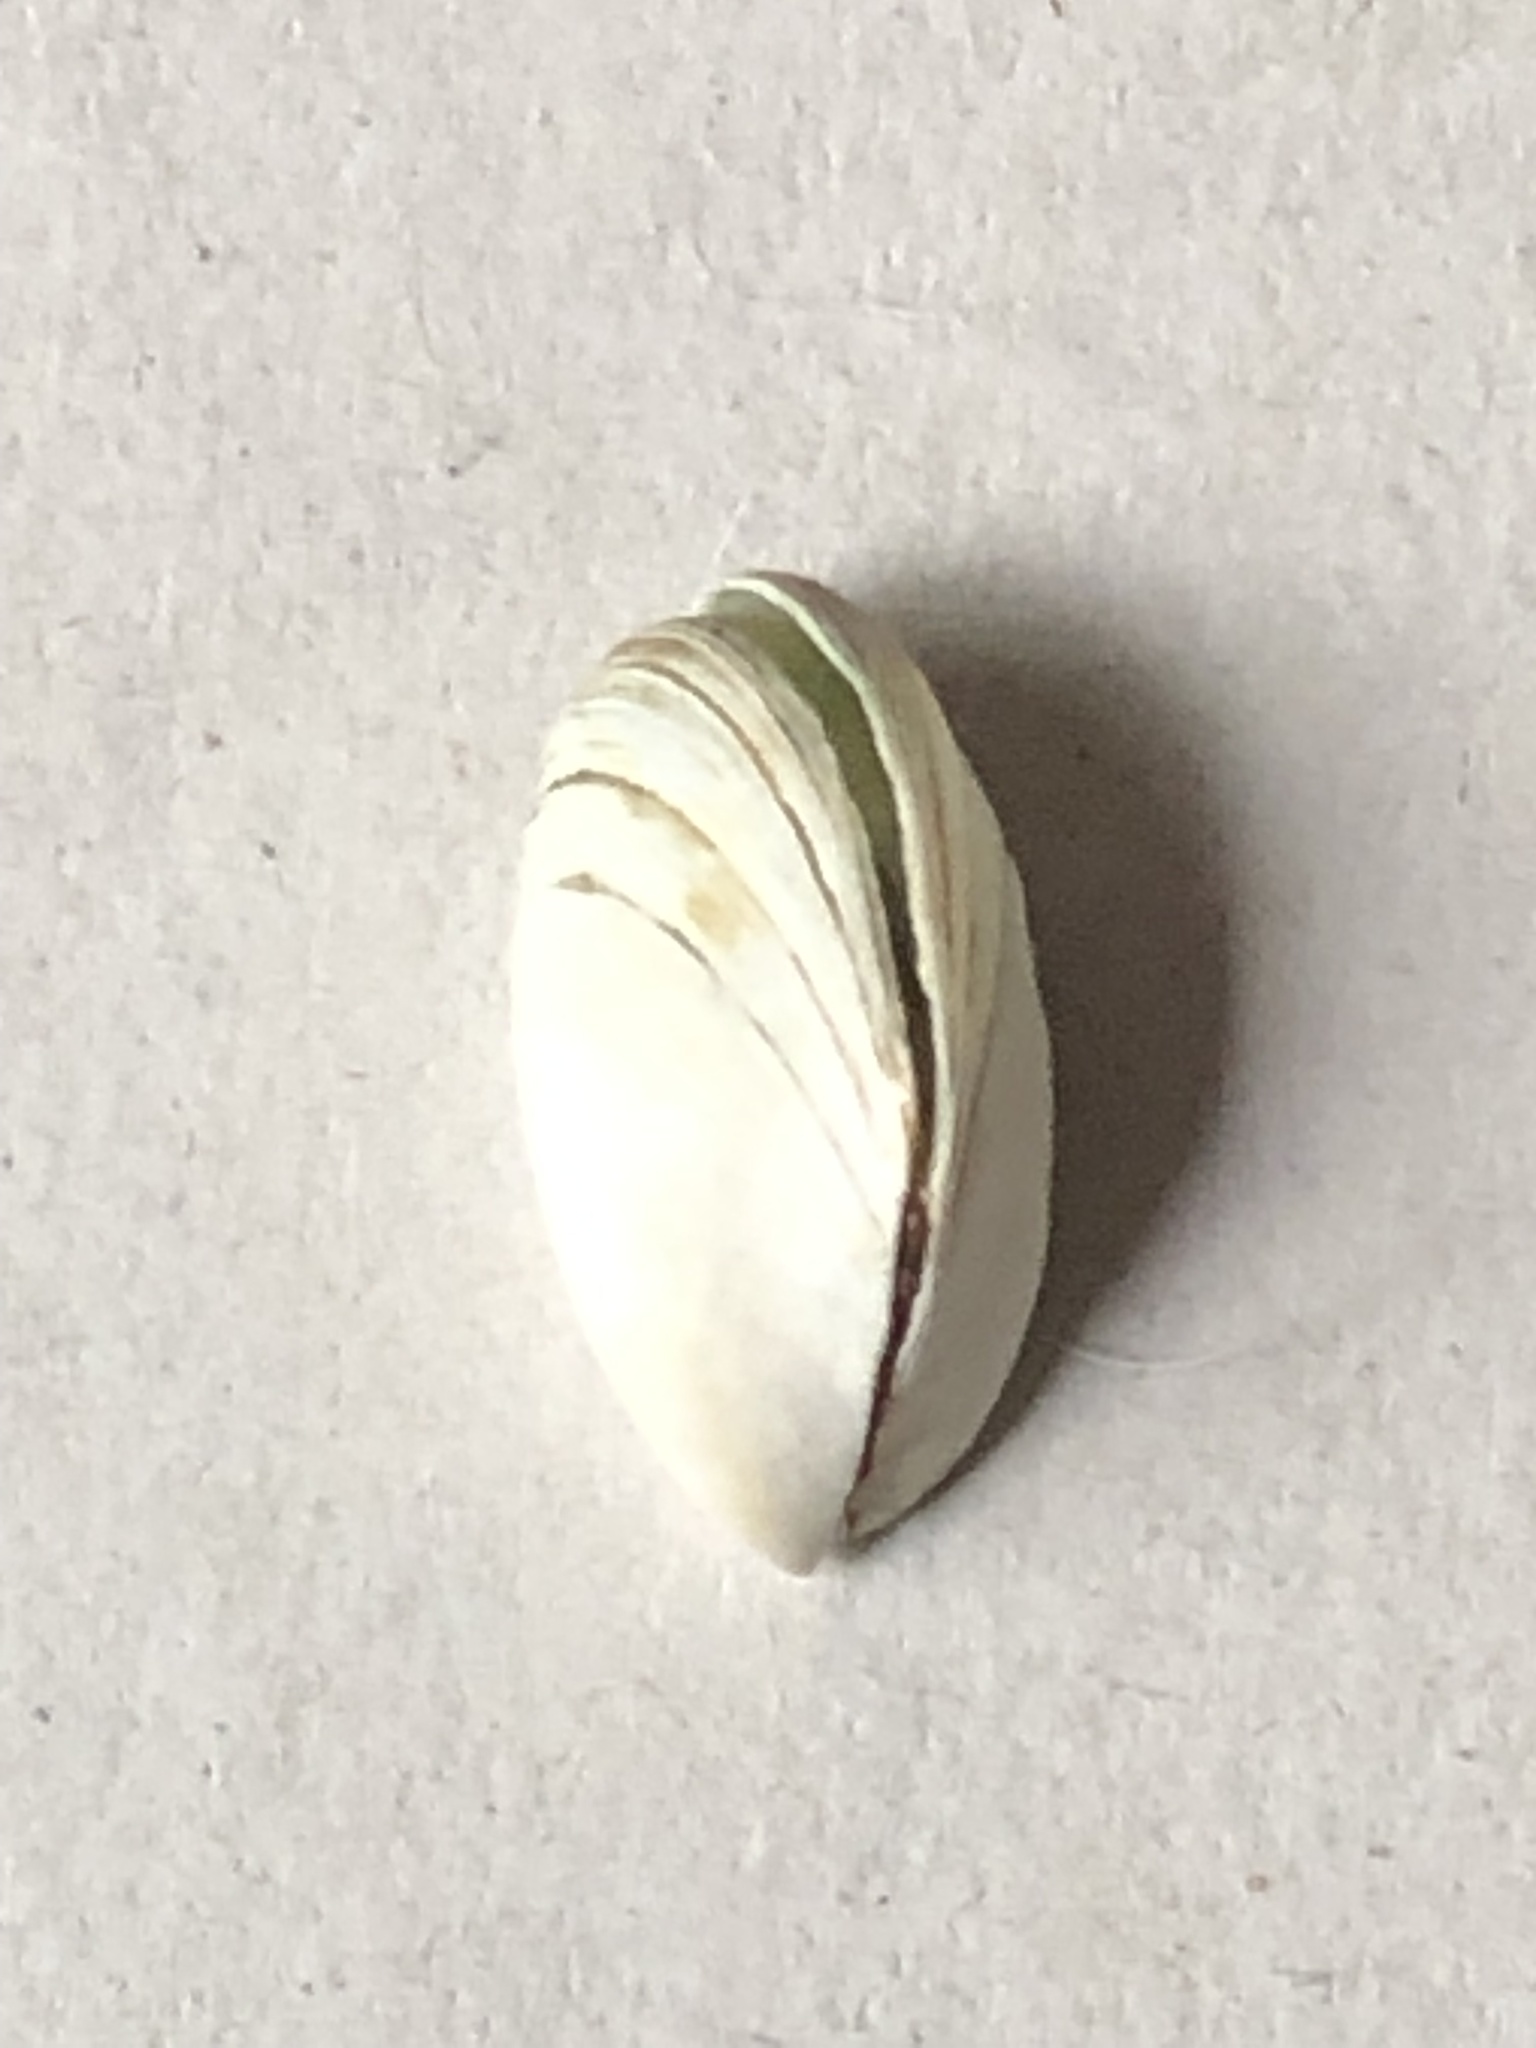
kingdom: Animalia
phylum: Mollusca
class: Bivalvia
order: Myida
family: Dreissenidae
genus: Dreissena
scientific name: Dreissena polymorpha
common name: Zebra mussel
